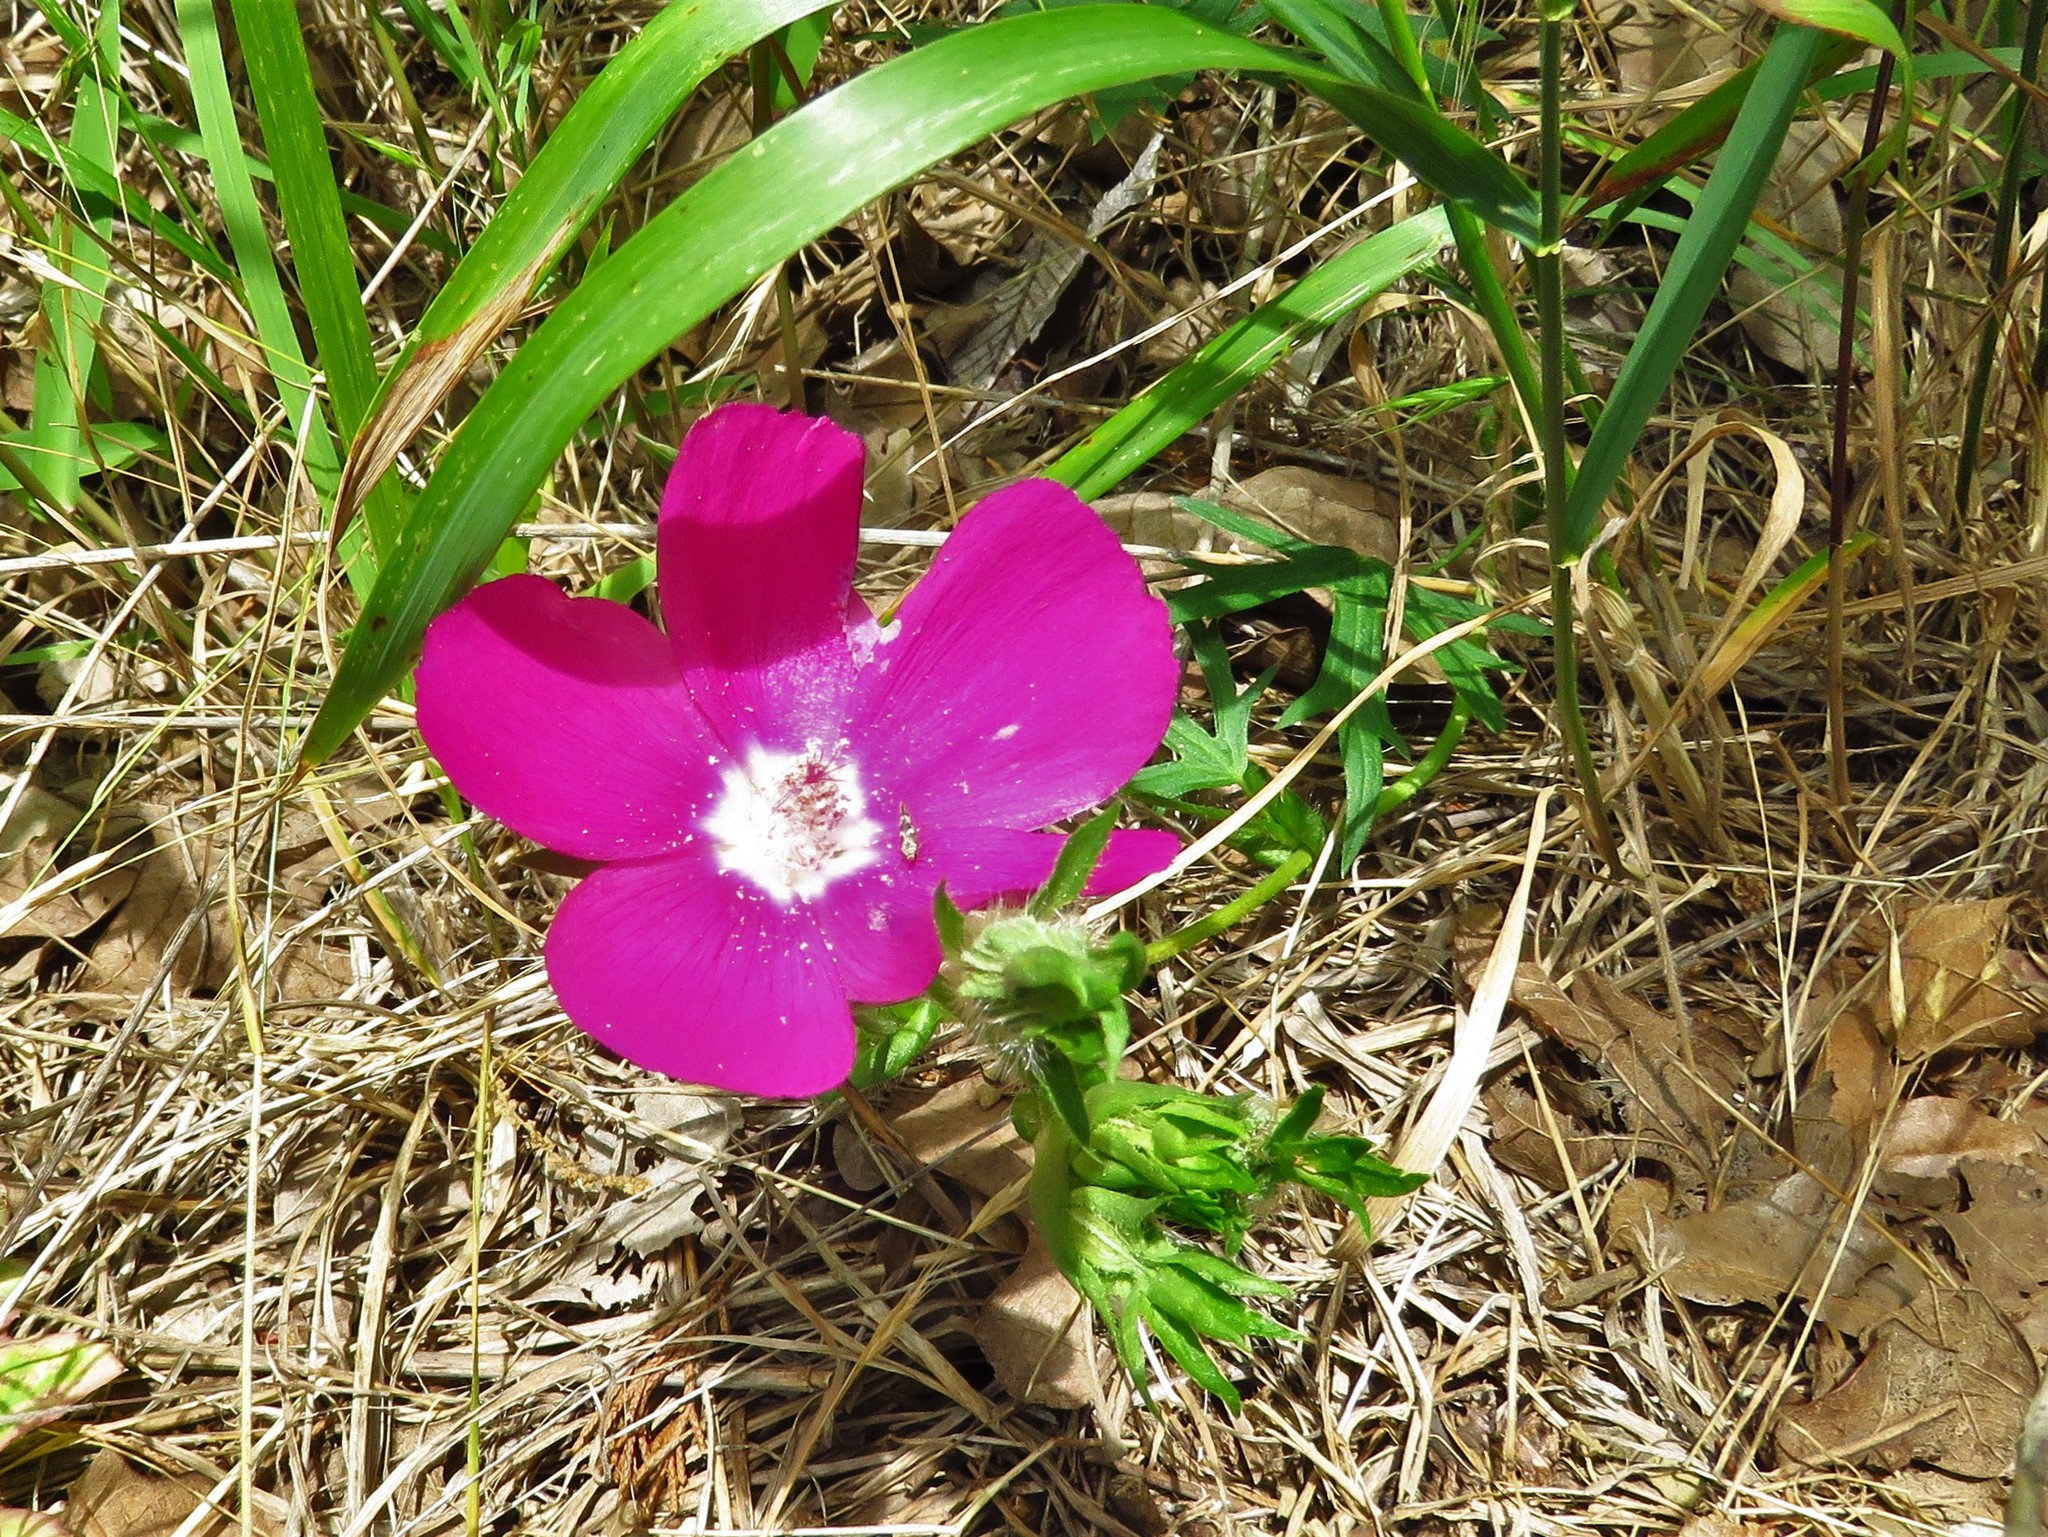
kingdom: Plantae
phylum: Tracheophyta
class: Magnoliopsida
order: Malvales
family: Malvaceae
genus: Callirhoe
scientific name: Callirhoe involucrata
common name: Purple poppy-mallow
